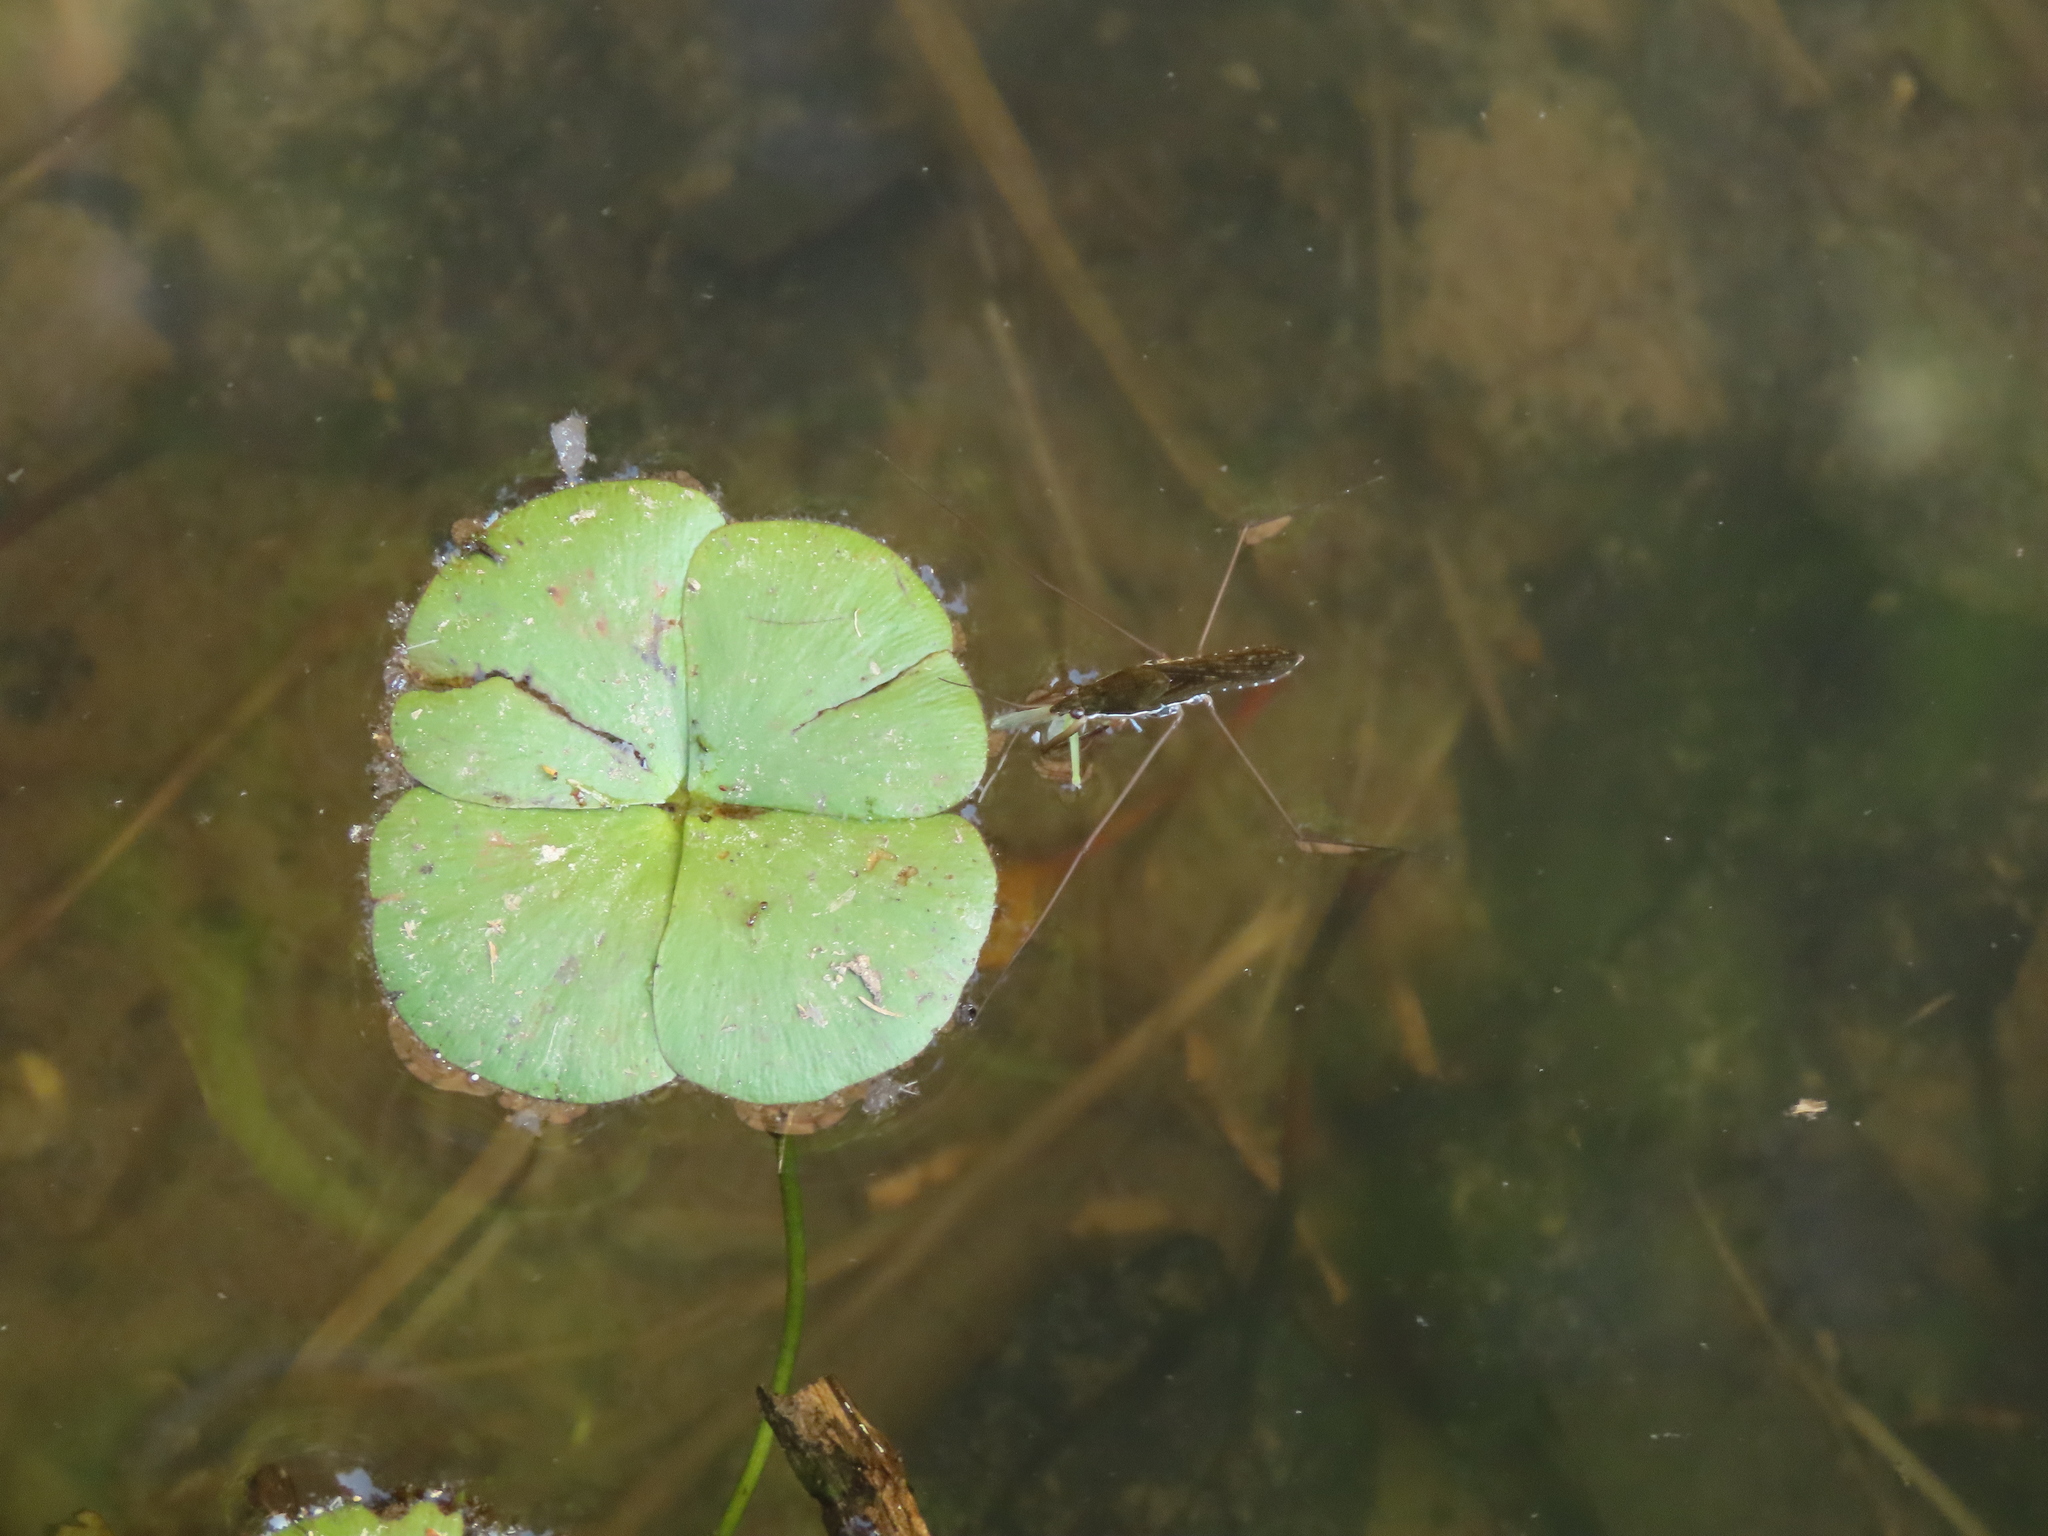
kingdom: Plantae
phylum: Tracheophyta
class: Polypodiopsida
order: Salviniales
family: Marsileaceae
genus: Marsilea
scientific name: Marsilea minuta
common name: Dwarf waterclover
